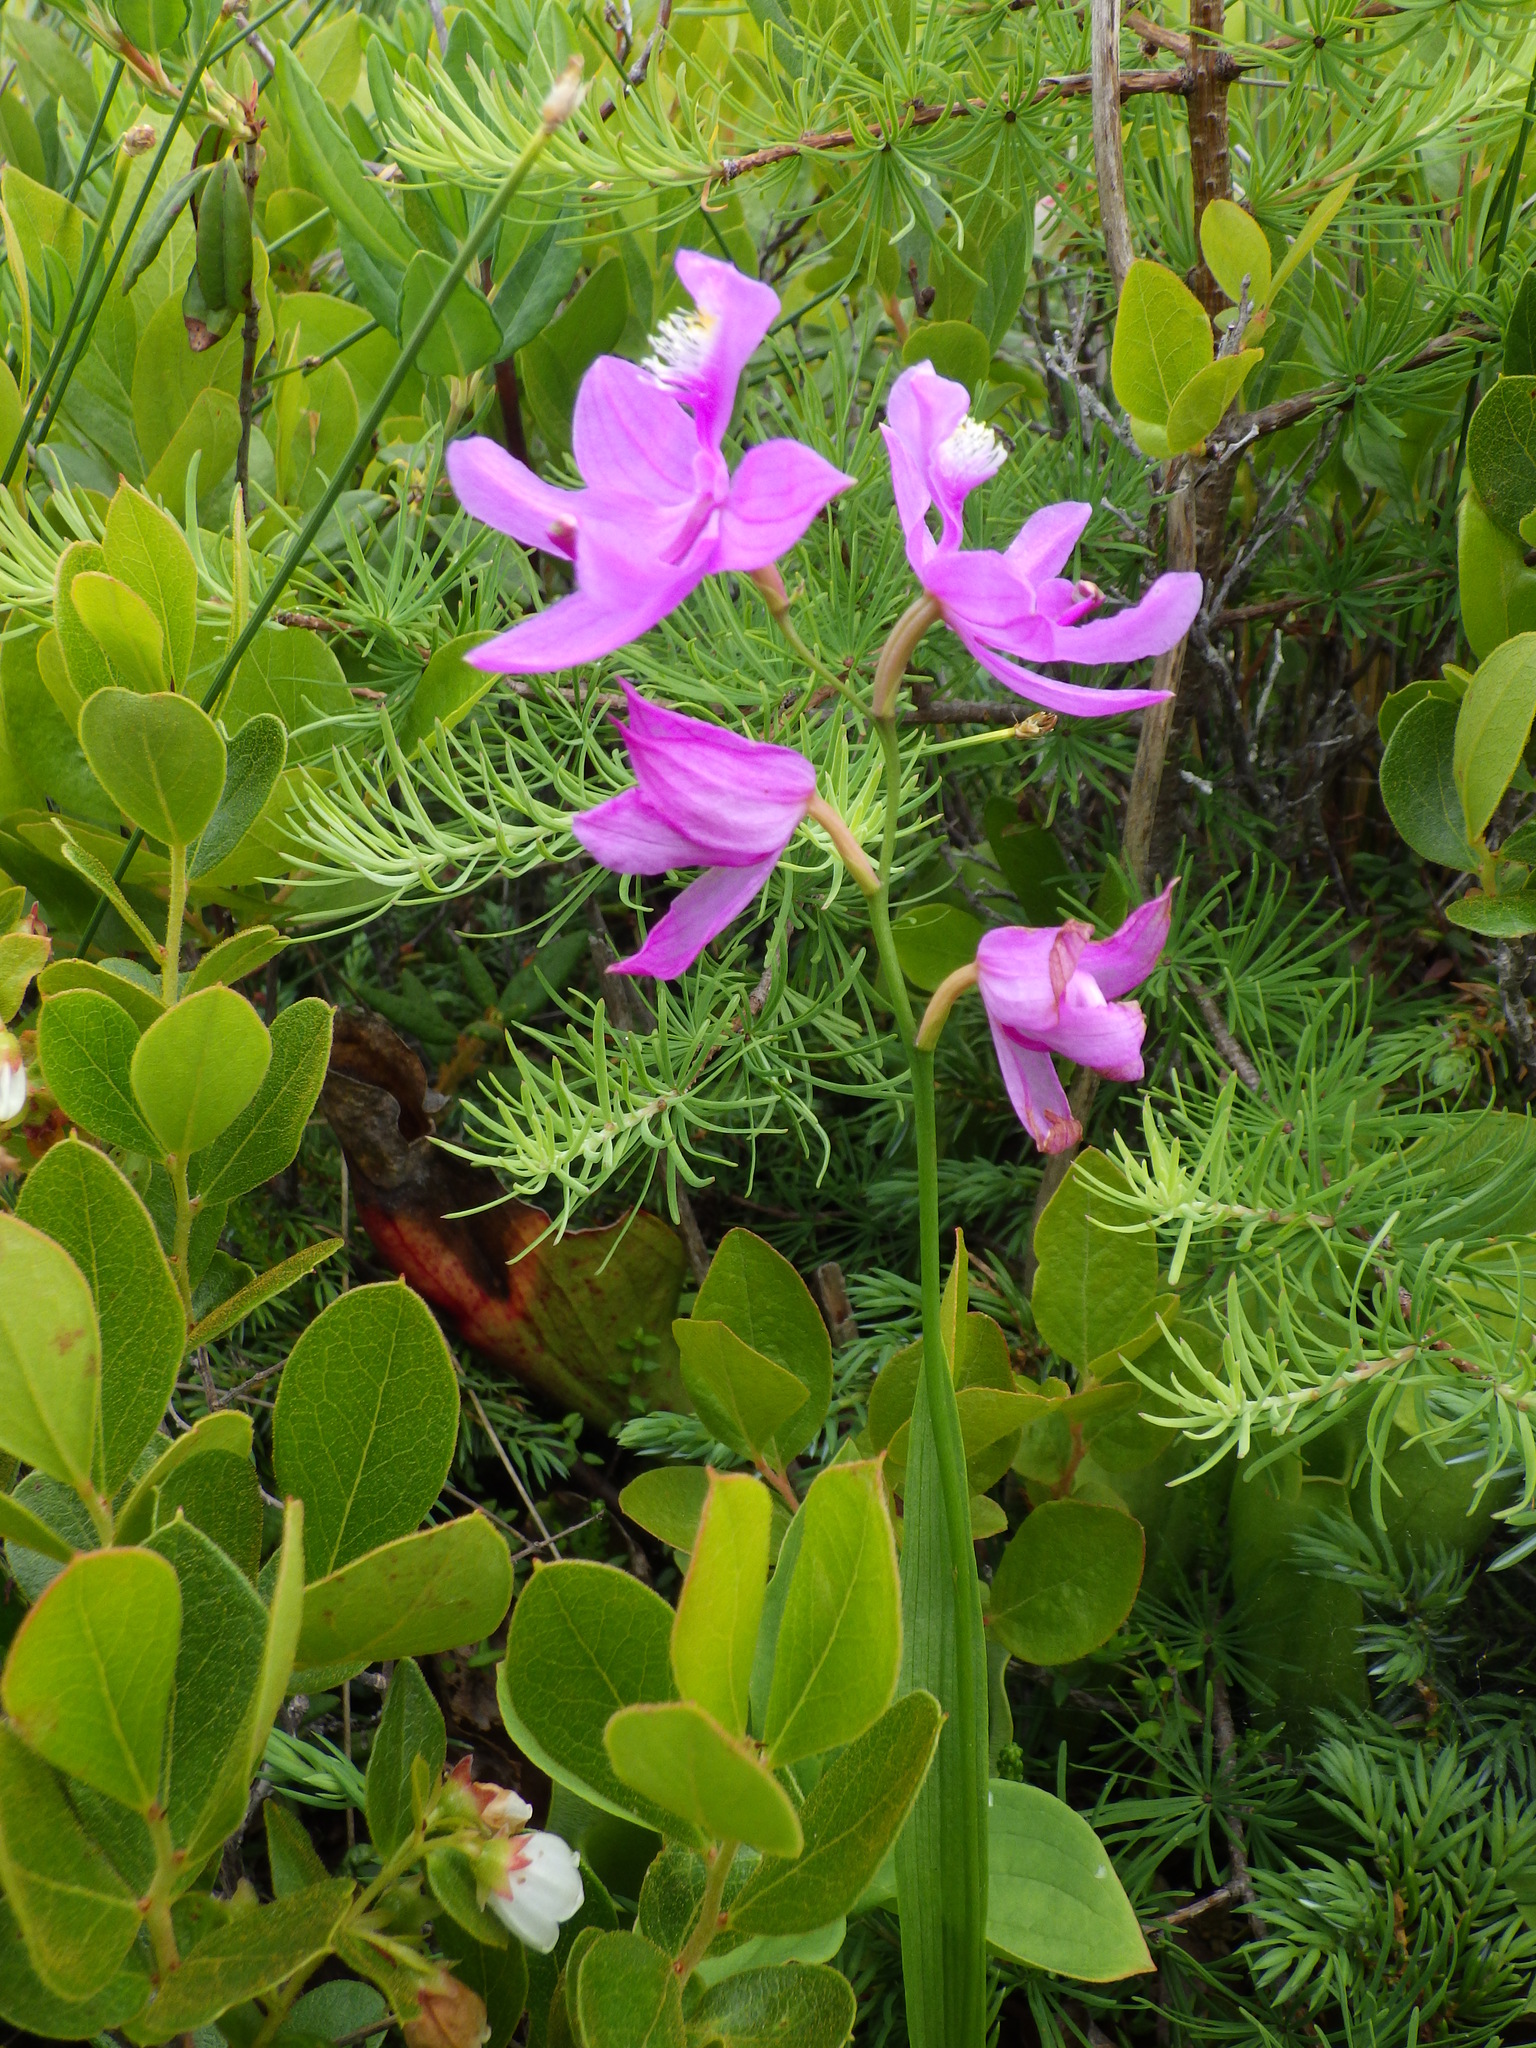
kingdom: Plantae
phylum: Tracheophyta
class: Liliopsida
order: Asparagales
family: Orchidaceae
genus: Calopogon
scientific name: Calopogon tuberosus
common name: Grass-pink
